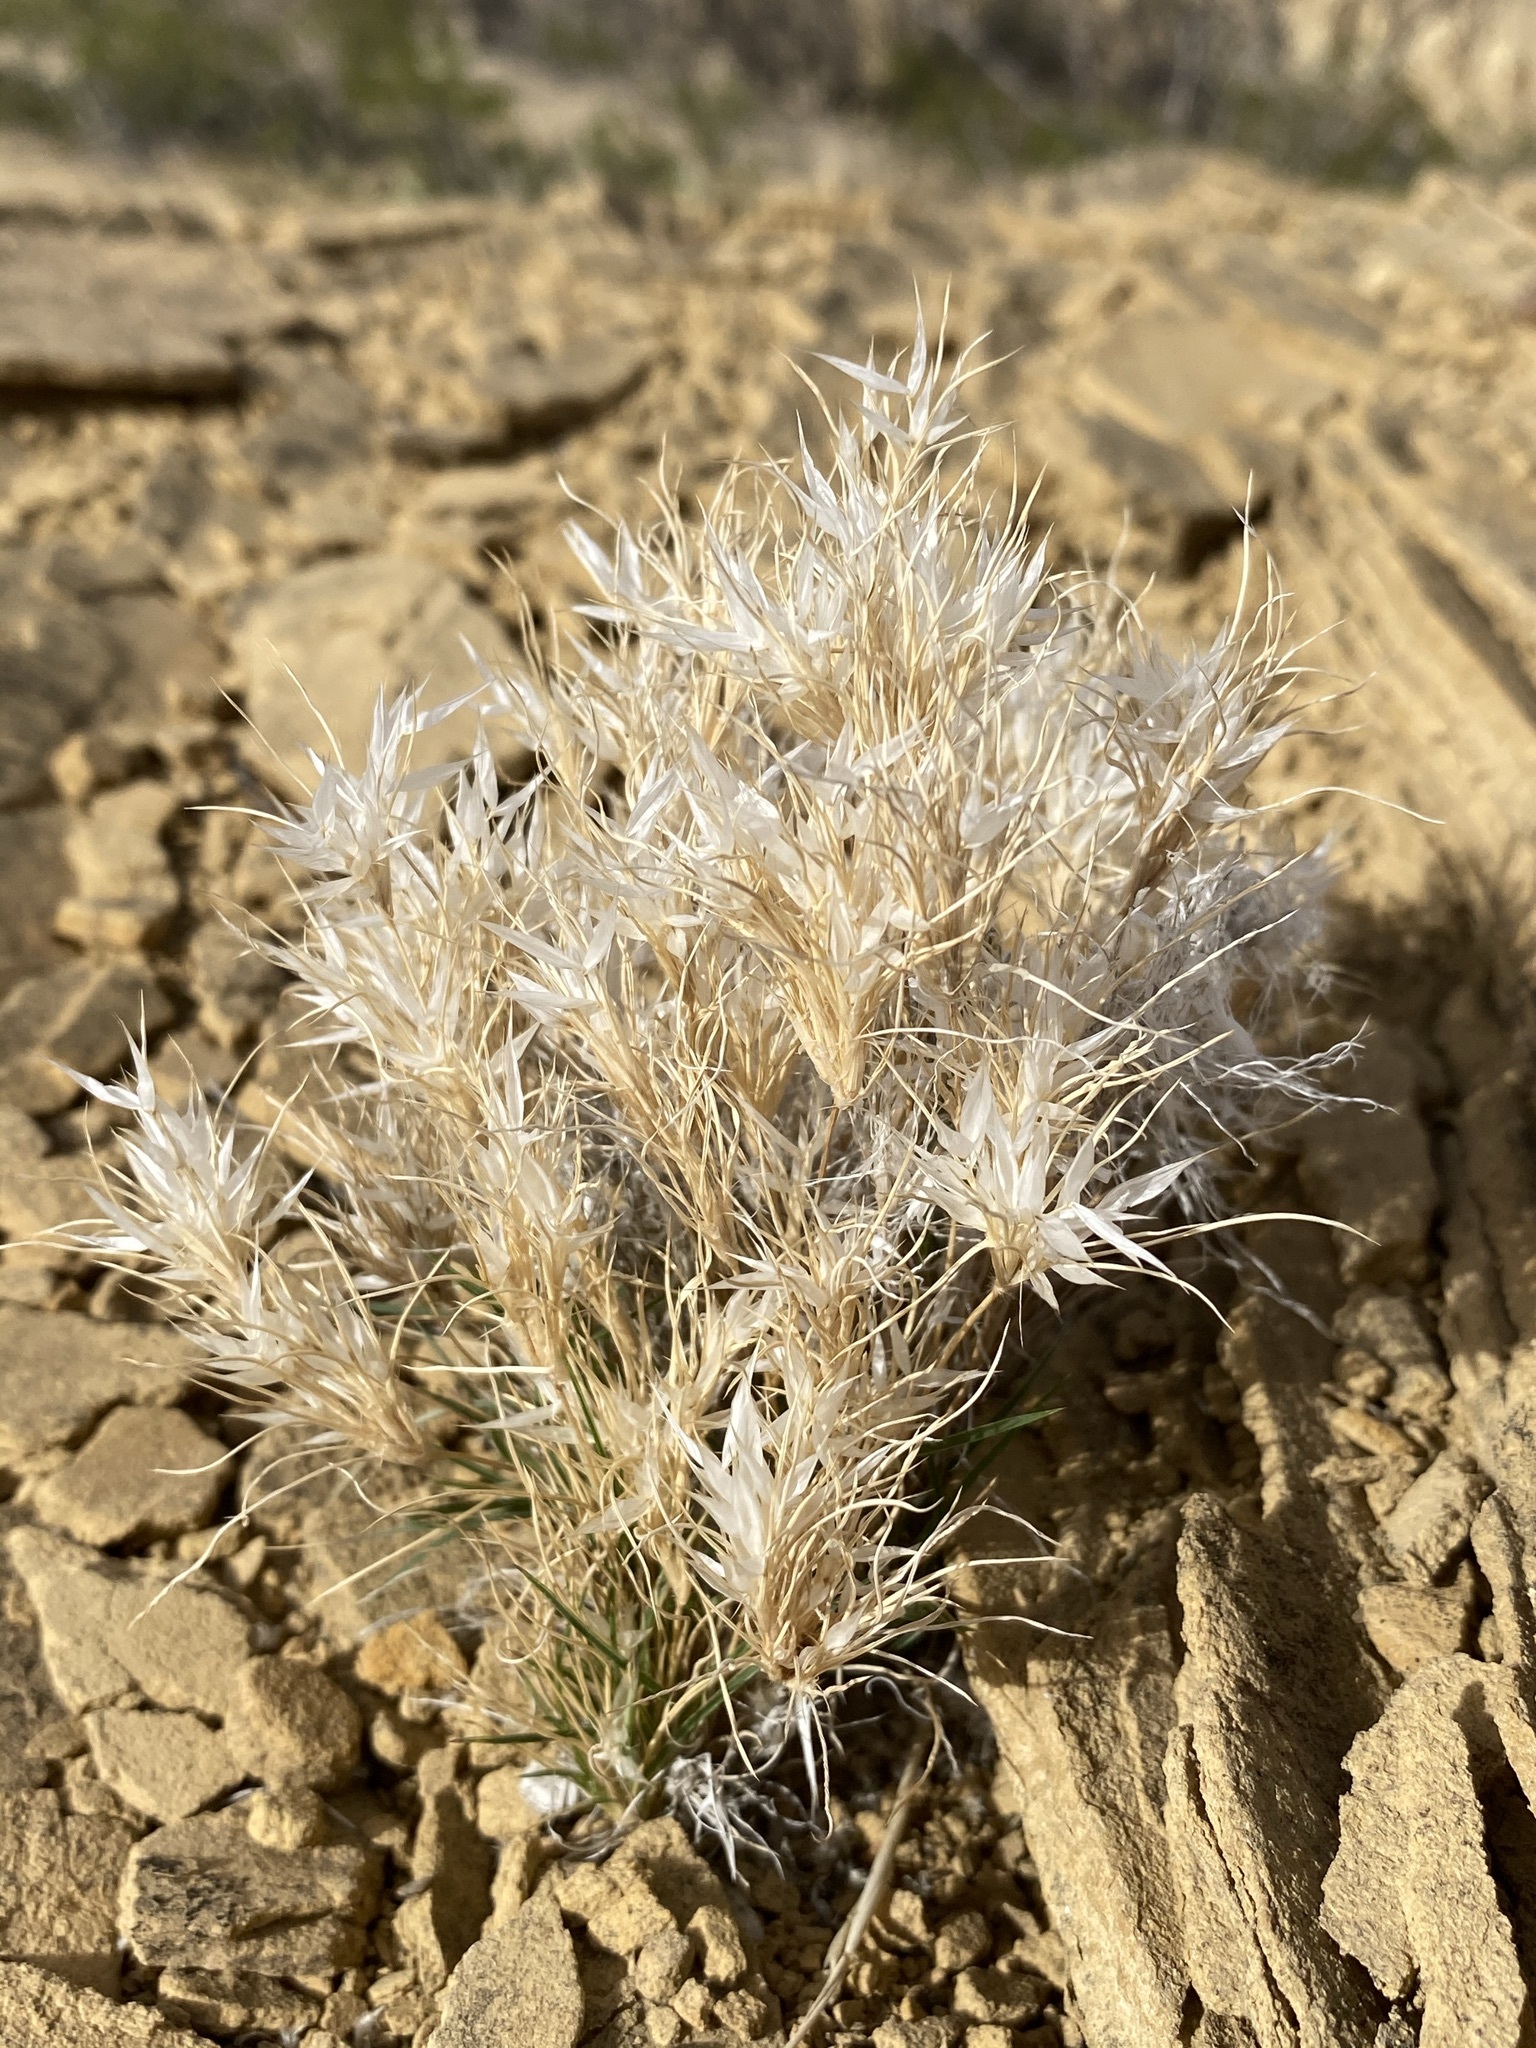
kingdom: Plantae
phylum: Tracheophyta
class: Liliopsida
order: Poales
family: Poaceae
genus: Dasyochloa
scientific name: Dasyochloa pulchella
